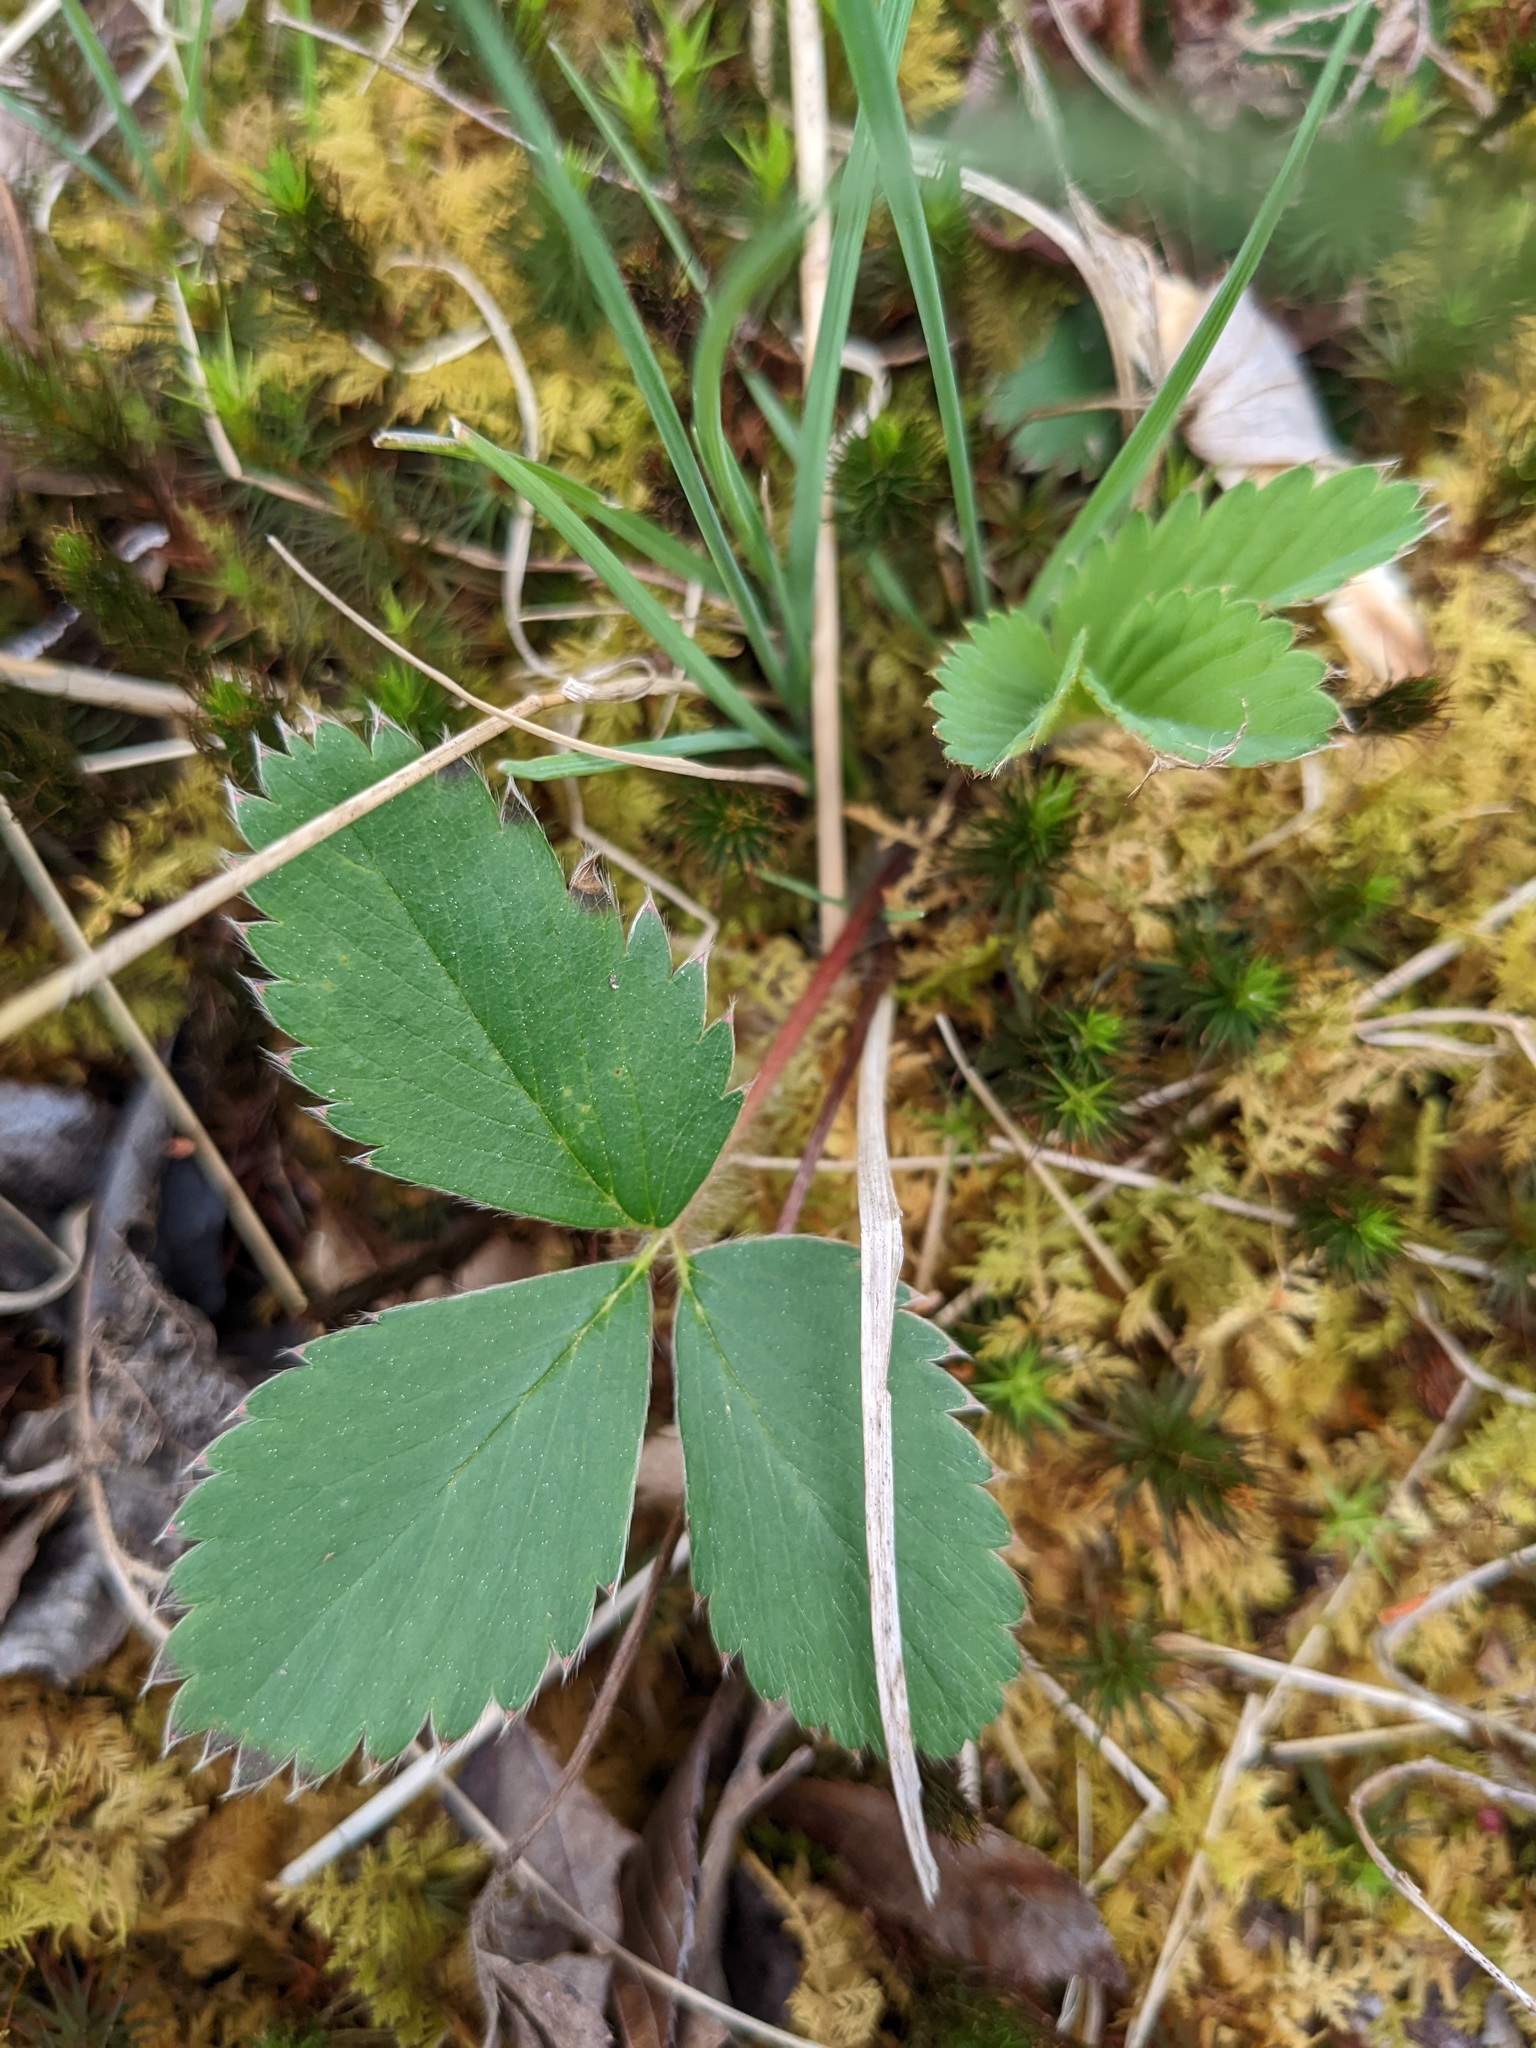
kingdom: Plantae
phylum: Tracheophyta
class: Magnoliopsida
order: Rosales
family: Rosaceae
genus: Fragaria
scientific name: Fragaria virginiana
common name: Thickleaved wild strawberry
